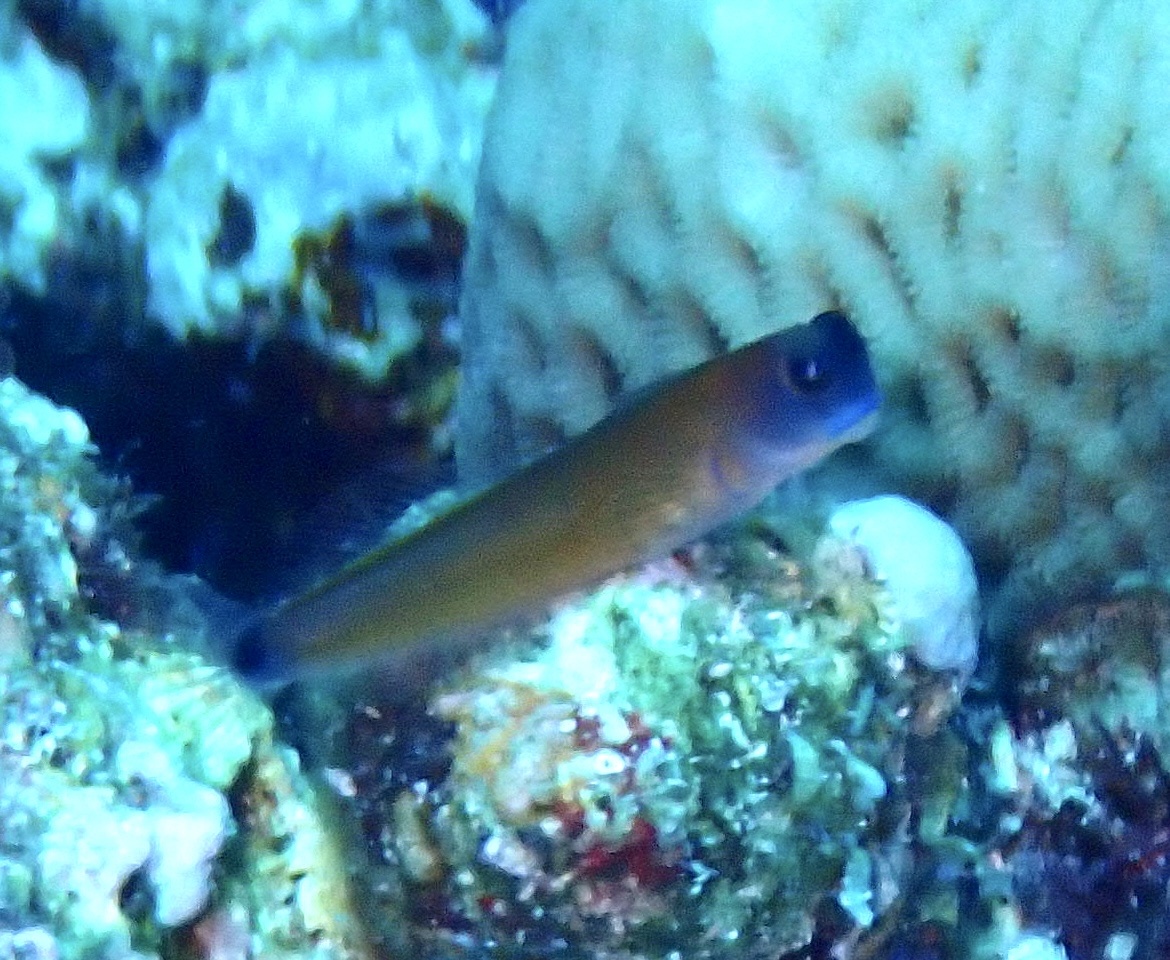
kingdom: Animalia
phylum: Chordata
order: Perciformes
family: Blenniidae
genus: Ecsenius
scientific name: Ecsenius aroni
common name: Aron's blenny
